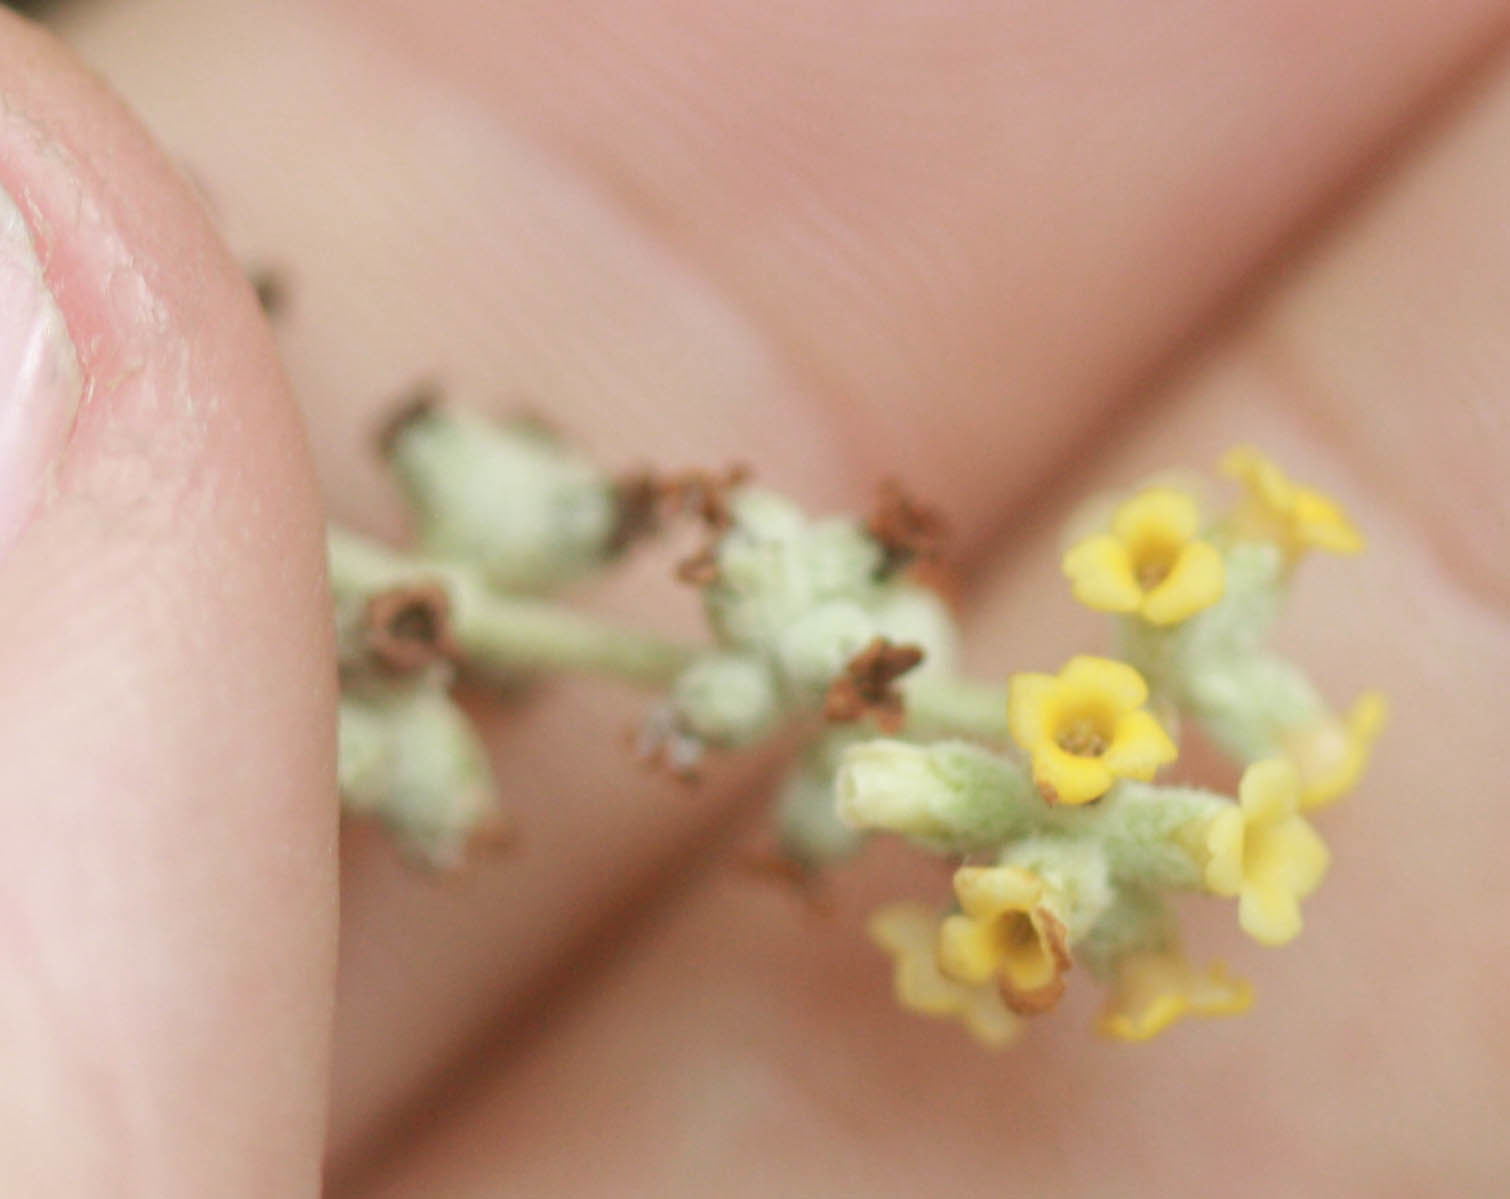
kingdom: Plantae
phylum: Tracheophyta
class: Magnoliopsida
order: Lamiales
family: Scrophulariaceae
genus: Buddleja
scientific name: Buddleja racemosa
